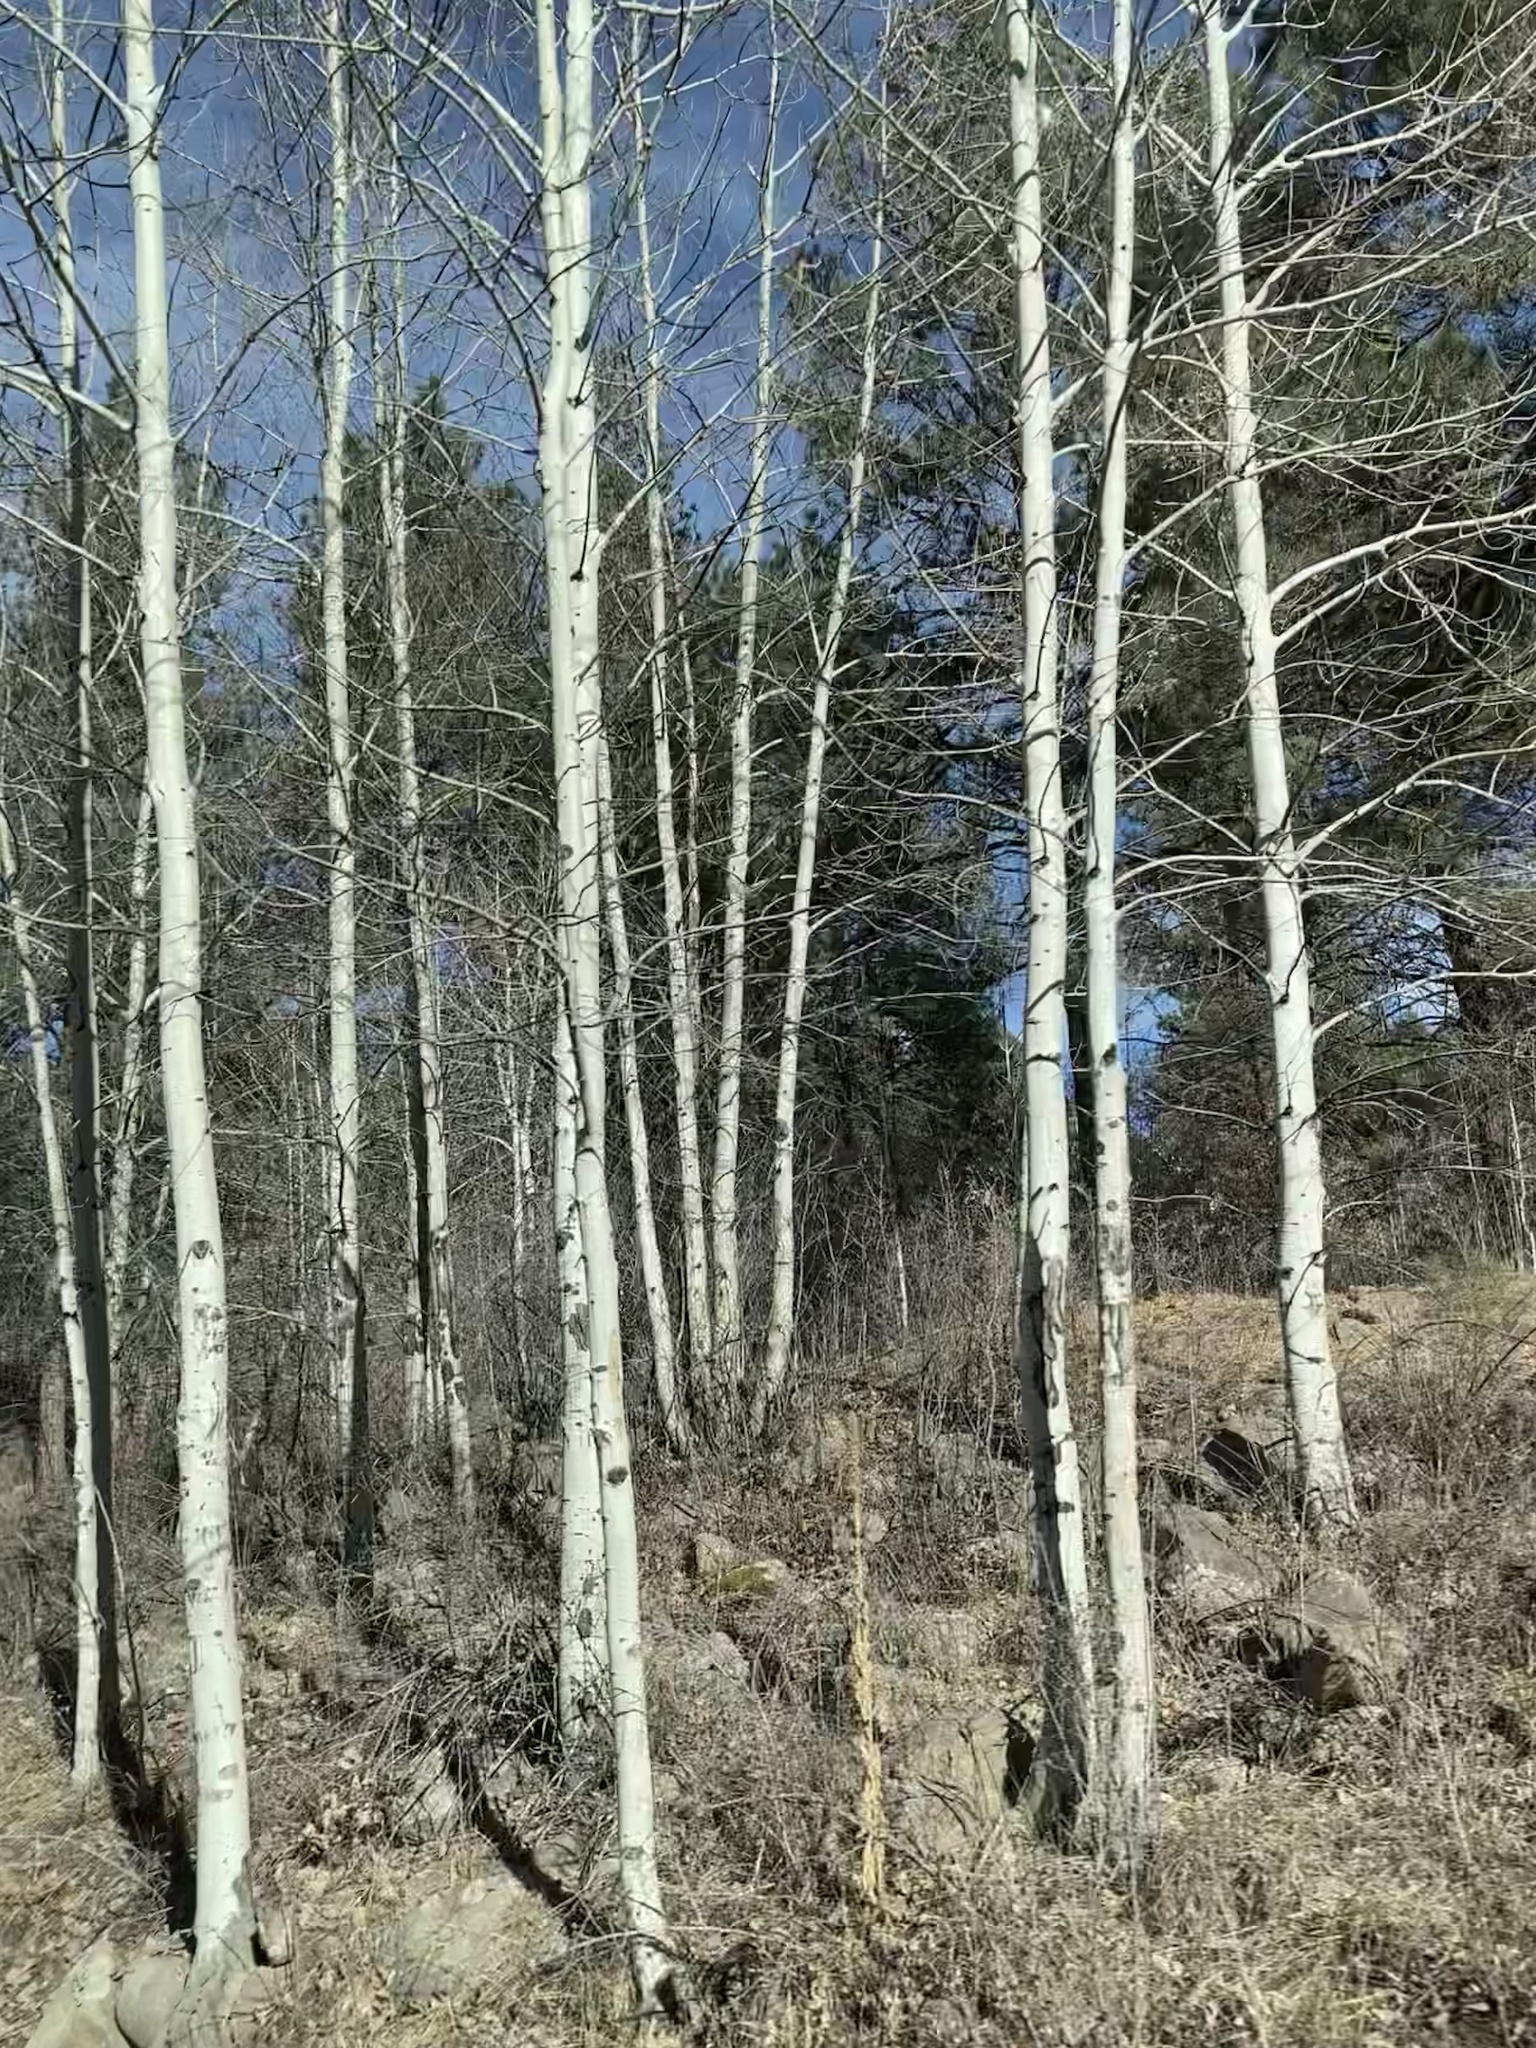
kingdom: Plantae
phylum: Tracheophyta
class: Magnoliopsida
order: Malpighiales
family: Salicaceae
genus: Populus
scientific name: Populus tremuloides
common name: Quaking aspen
